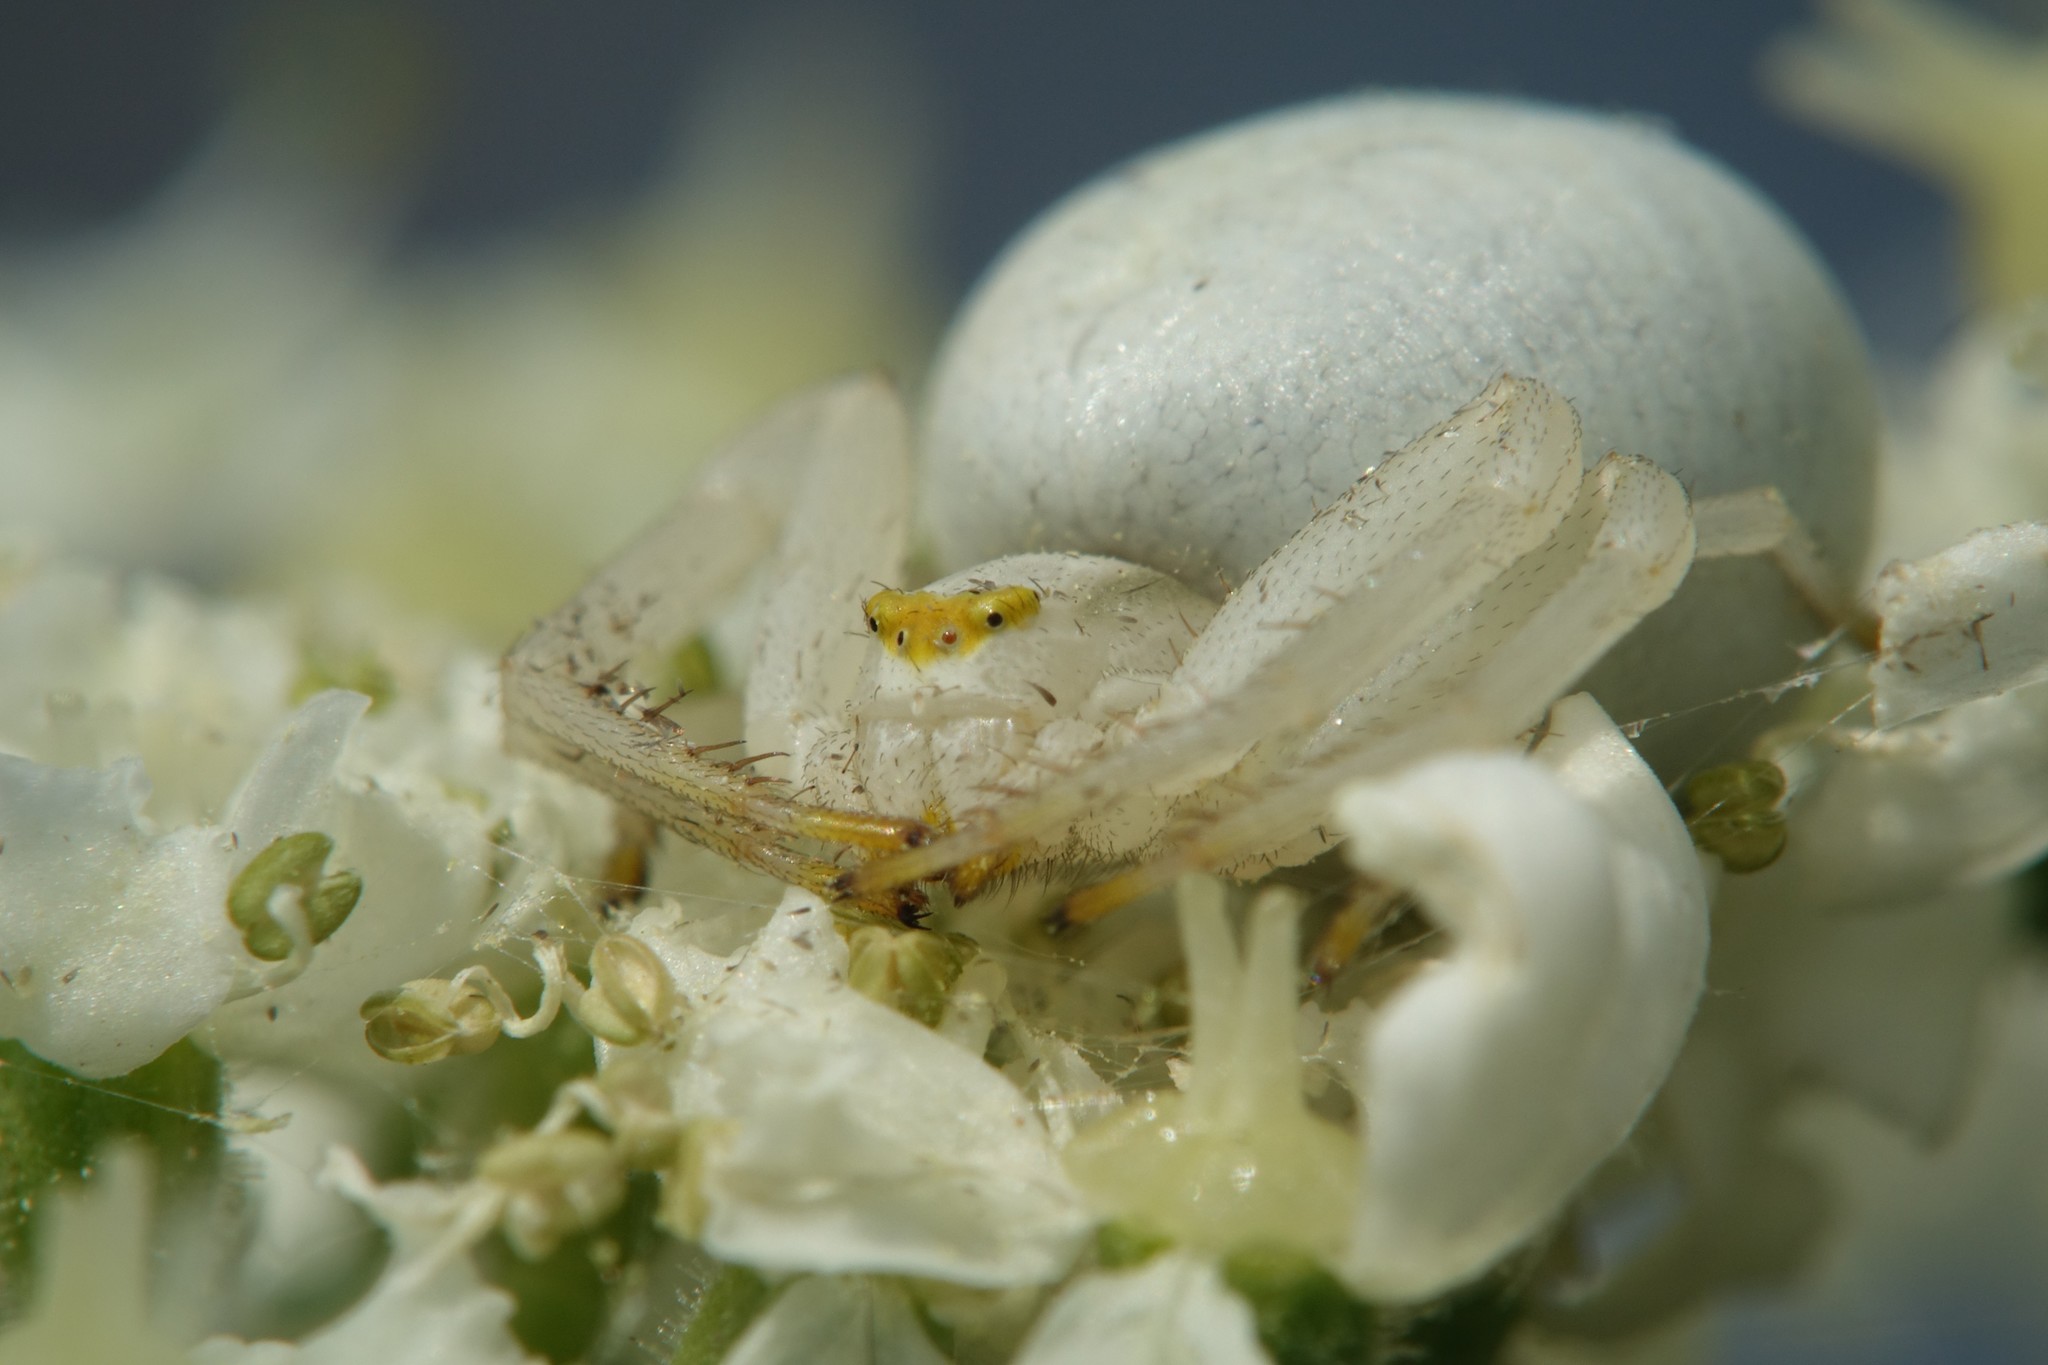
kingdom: Animalia
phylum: Arthropoda
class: Arachnida
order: Araneae
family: Thomisidae
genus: Misumena
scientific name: Misumena vatia
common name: Goldenrod crab spider
